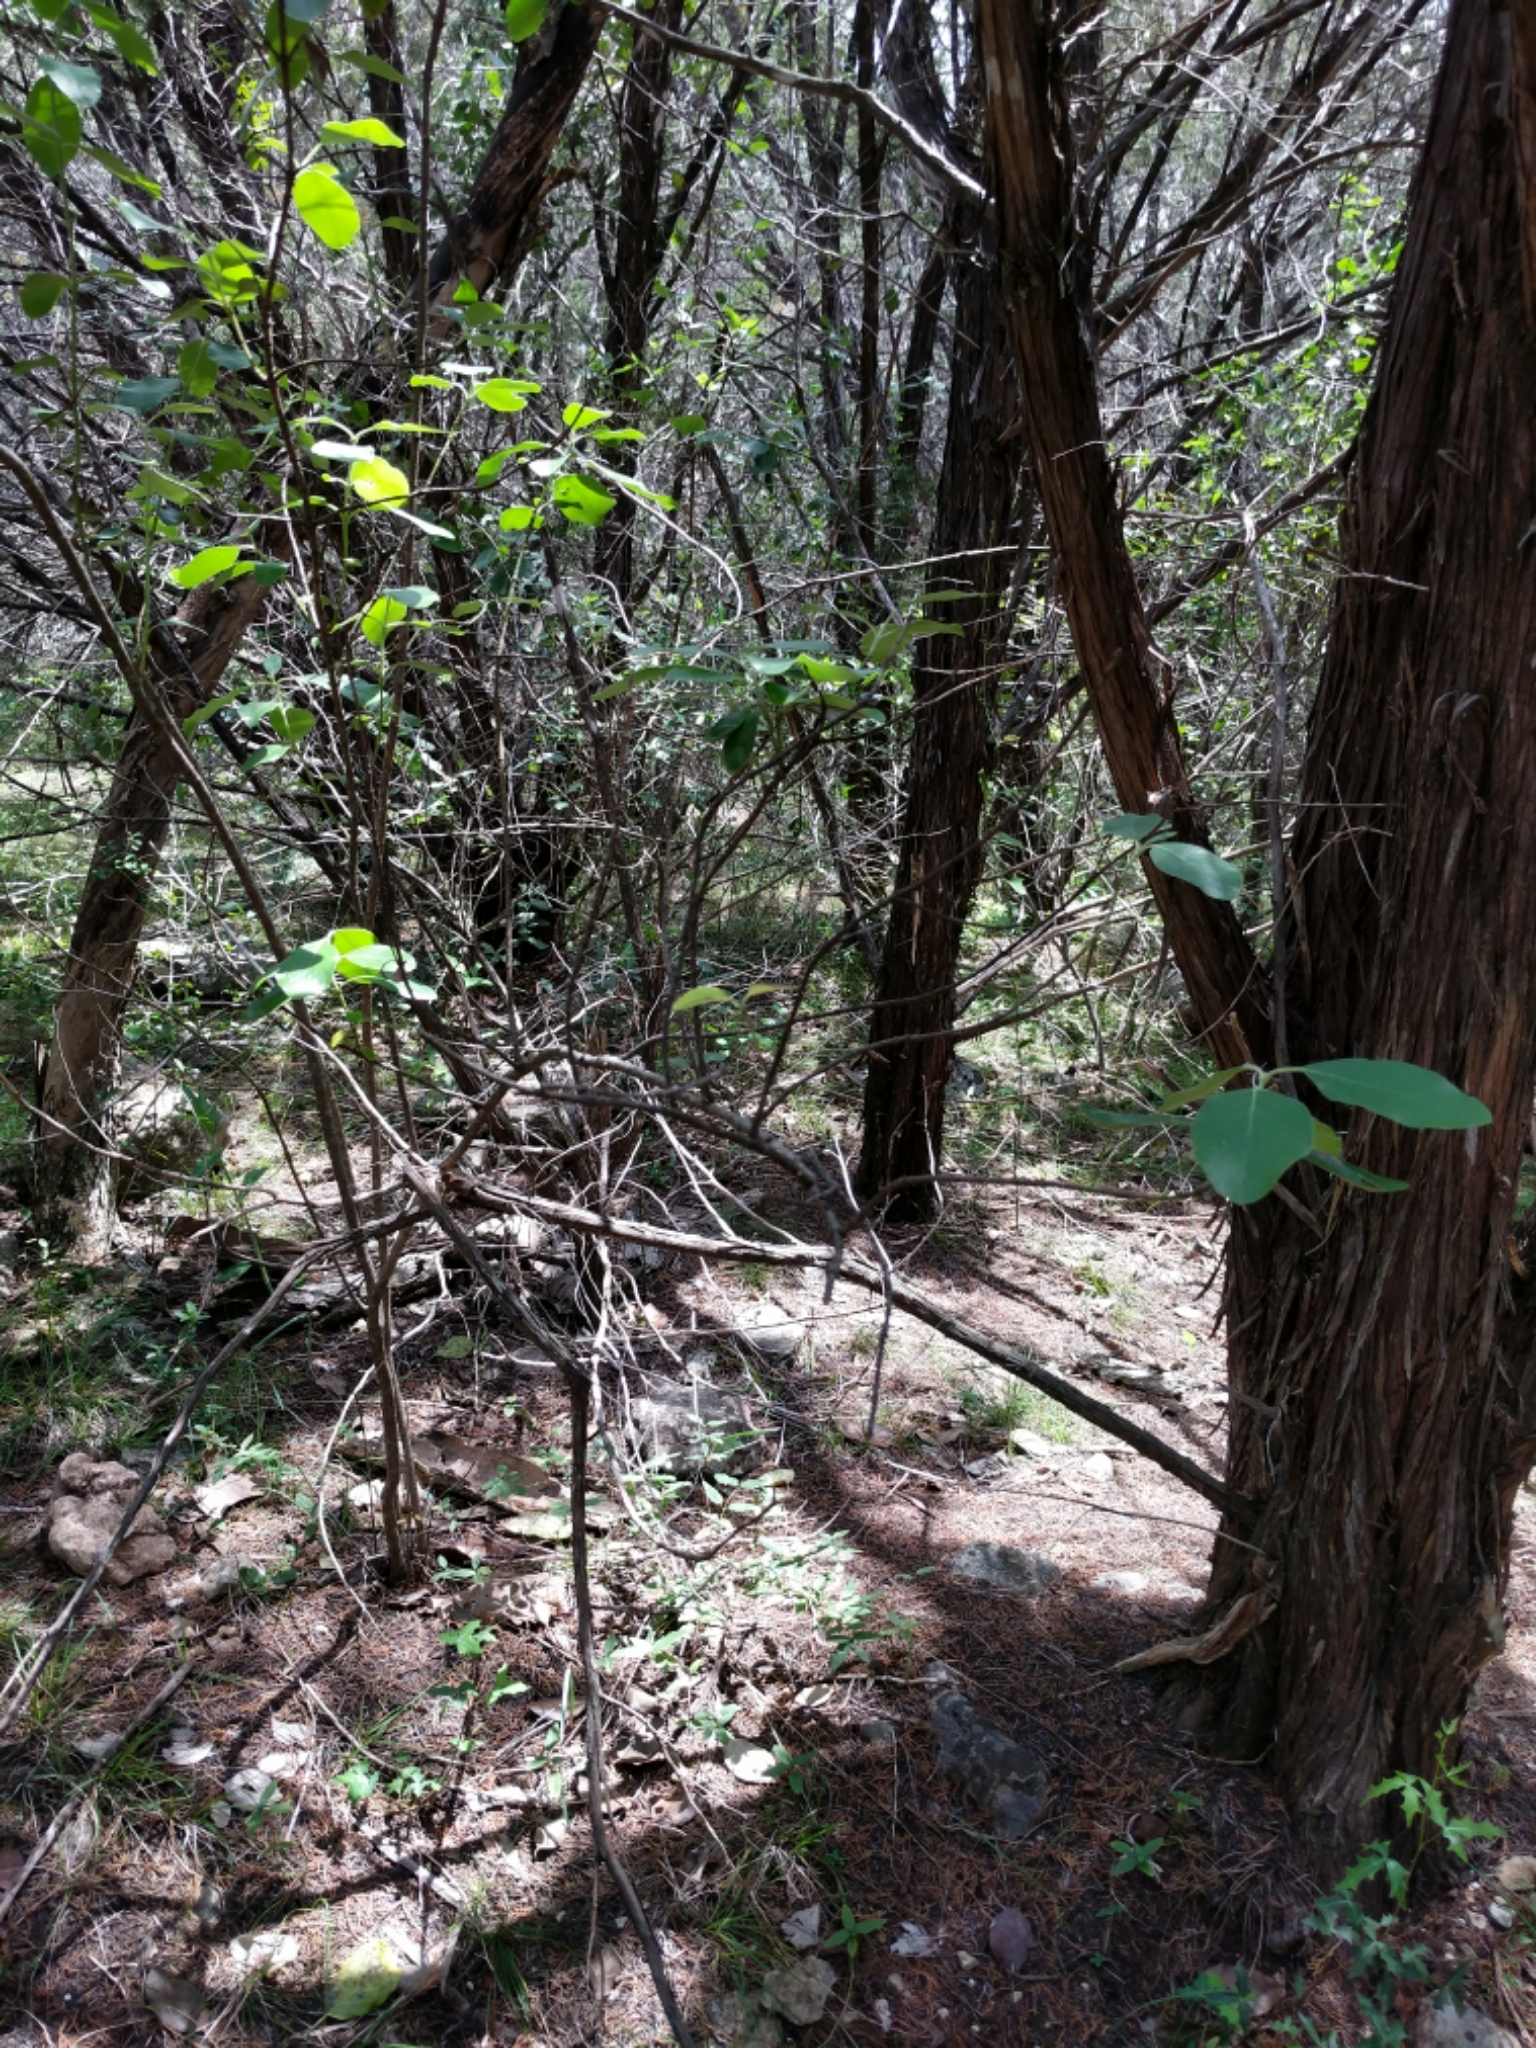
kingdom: Plantae
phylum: Tracheophyta
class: Magnoliopsida
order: Garryales
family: Garryaceae
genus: Garrya
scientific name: Garrya lindheimeri
